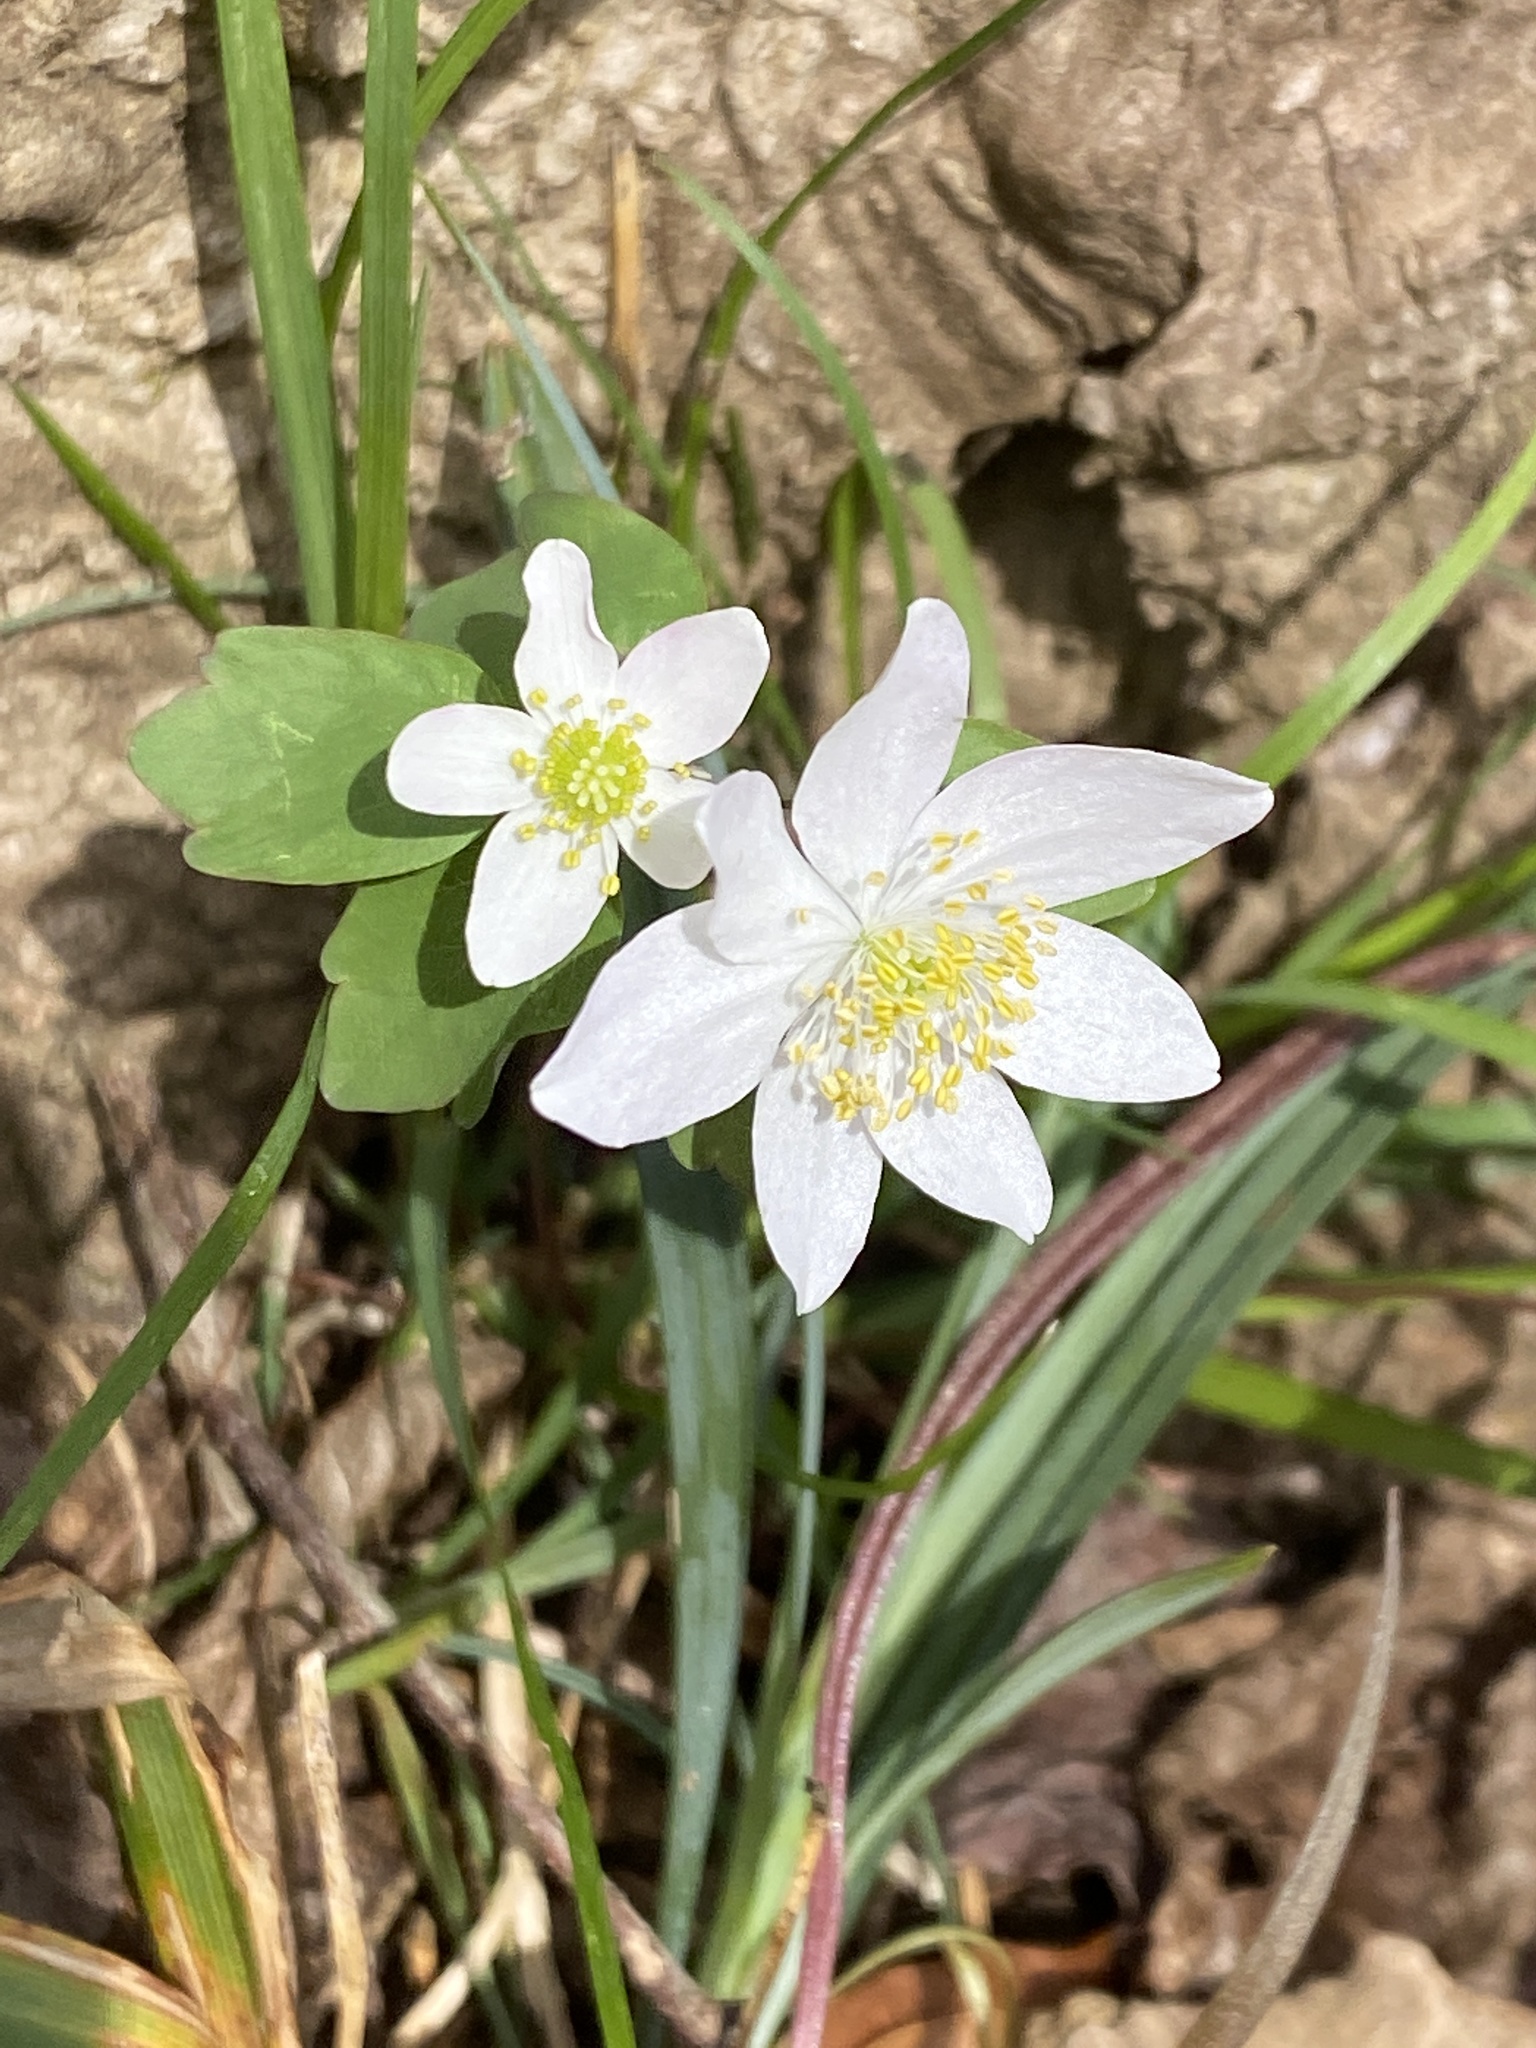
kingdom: Plantae
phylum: Tracheophyta
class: Magnoliopsida
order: Ranunculales
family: Ranunculaceae
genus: Thalictrum
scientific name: Thalictrum thalictroides
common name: Rue-anemone
